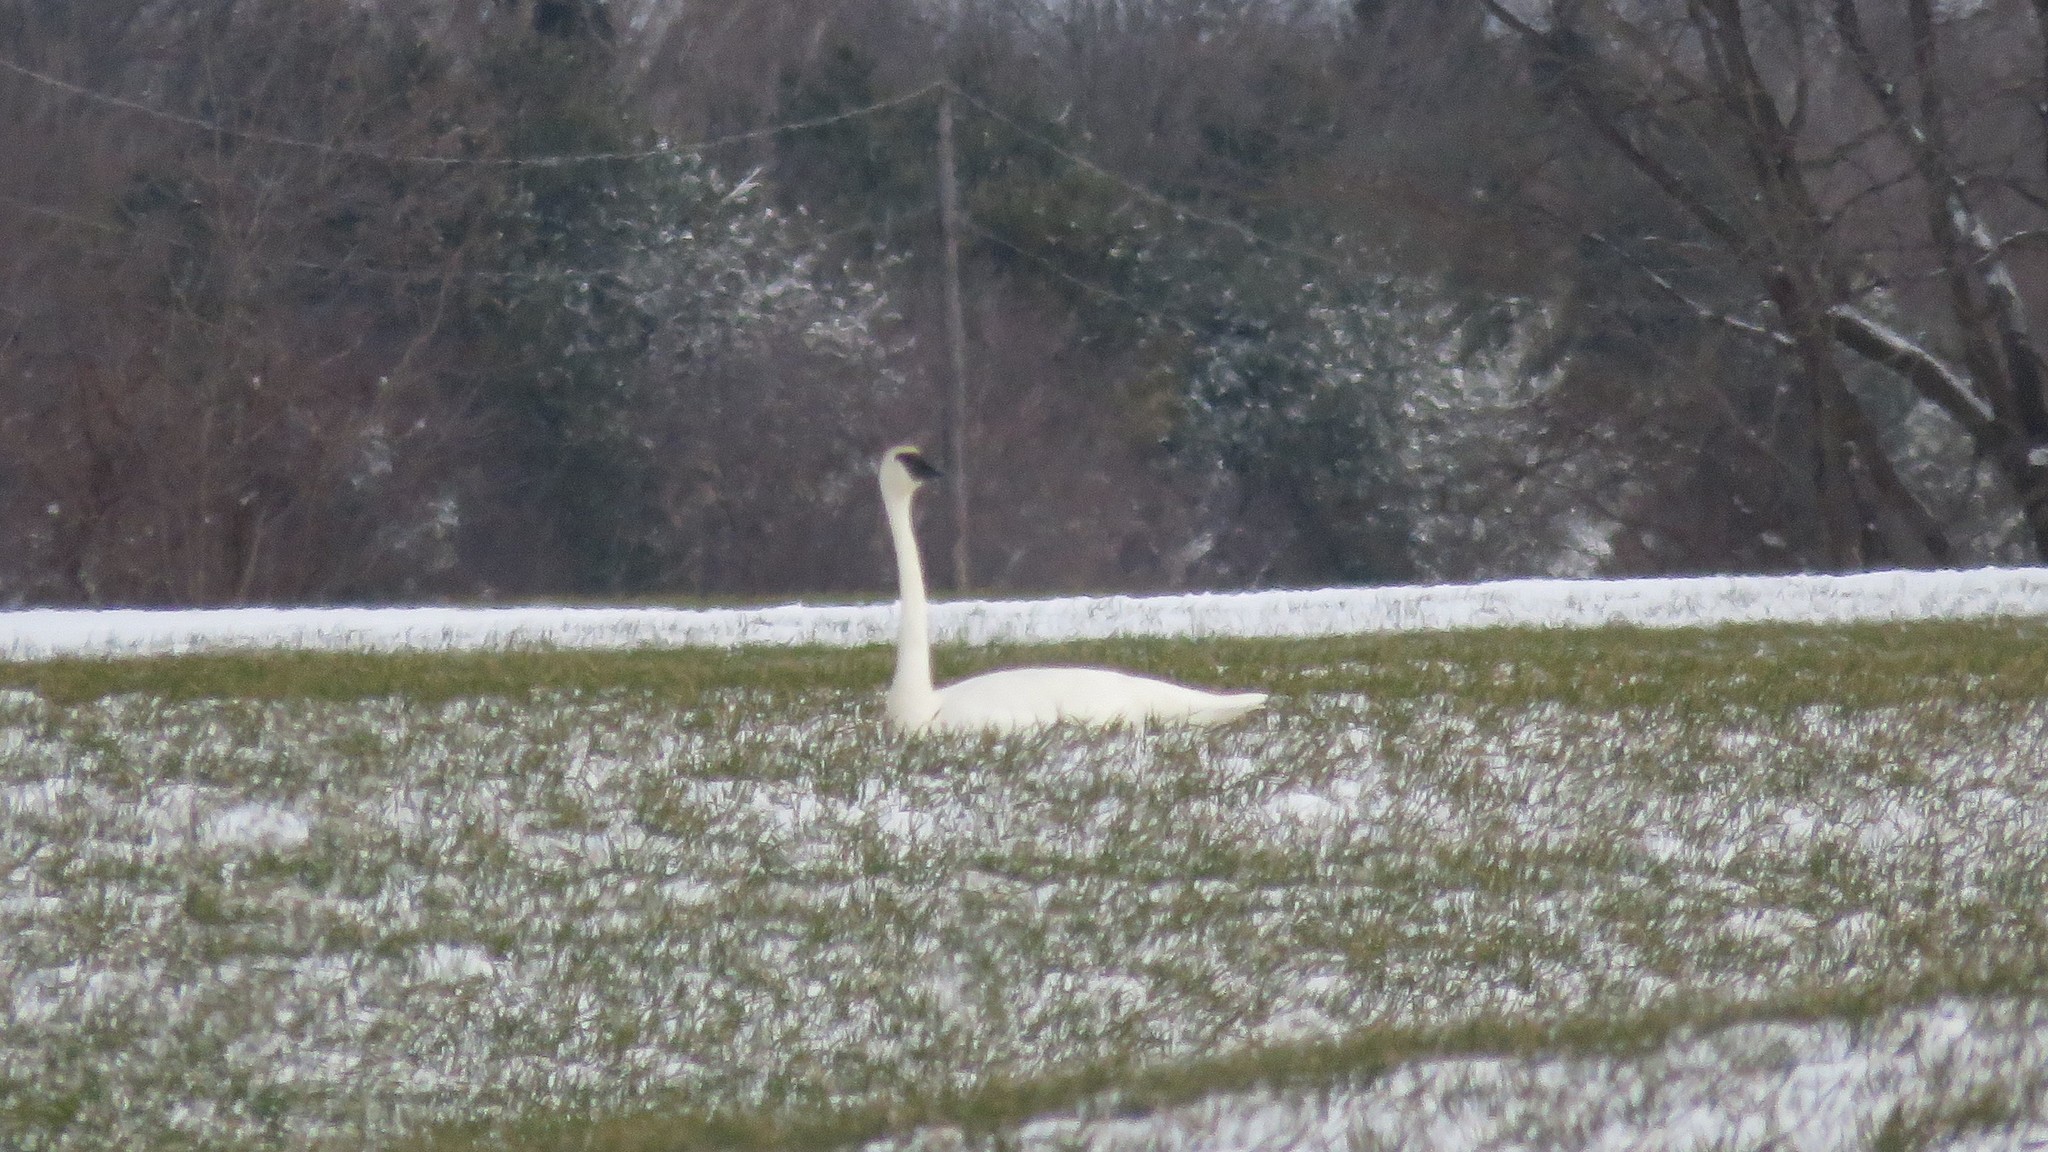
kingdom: Animalia
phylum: Chordata
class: Aves
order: Anseriformes
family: Anatidae
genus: Cygnus
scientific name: Cygnus buccinator
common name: Trumpeter swan
